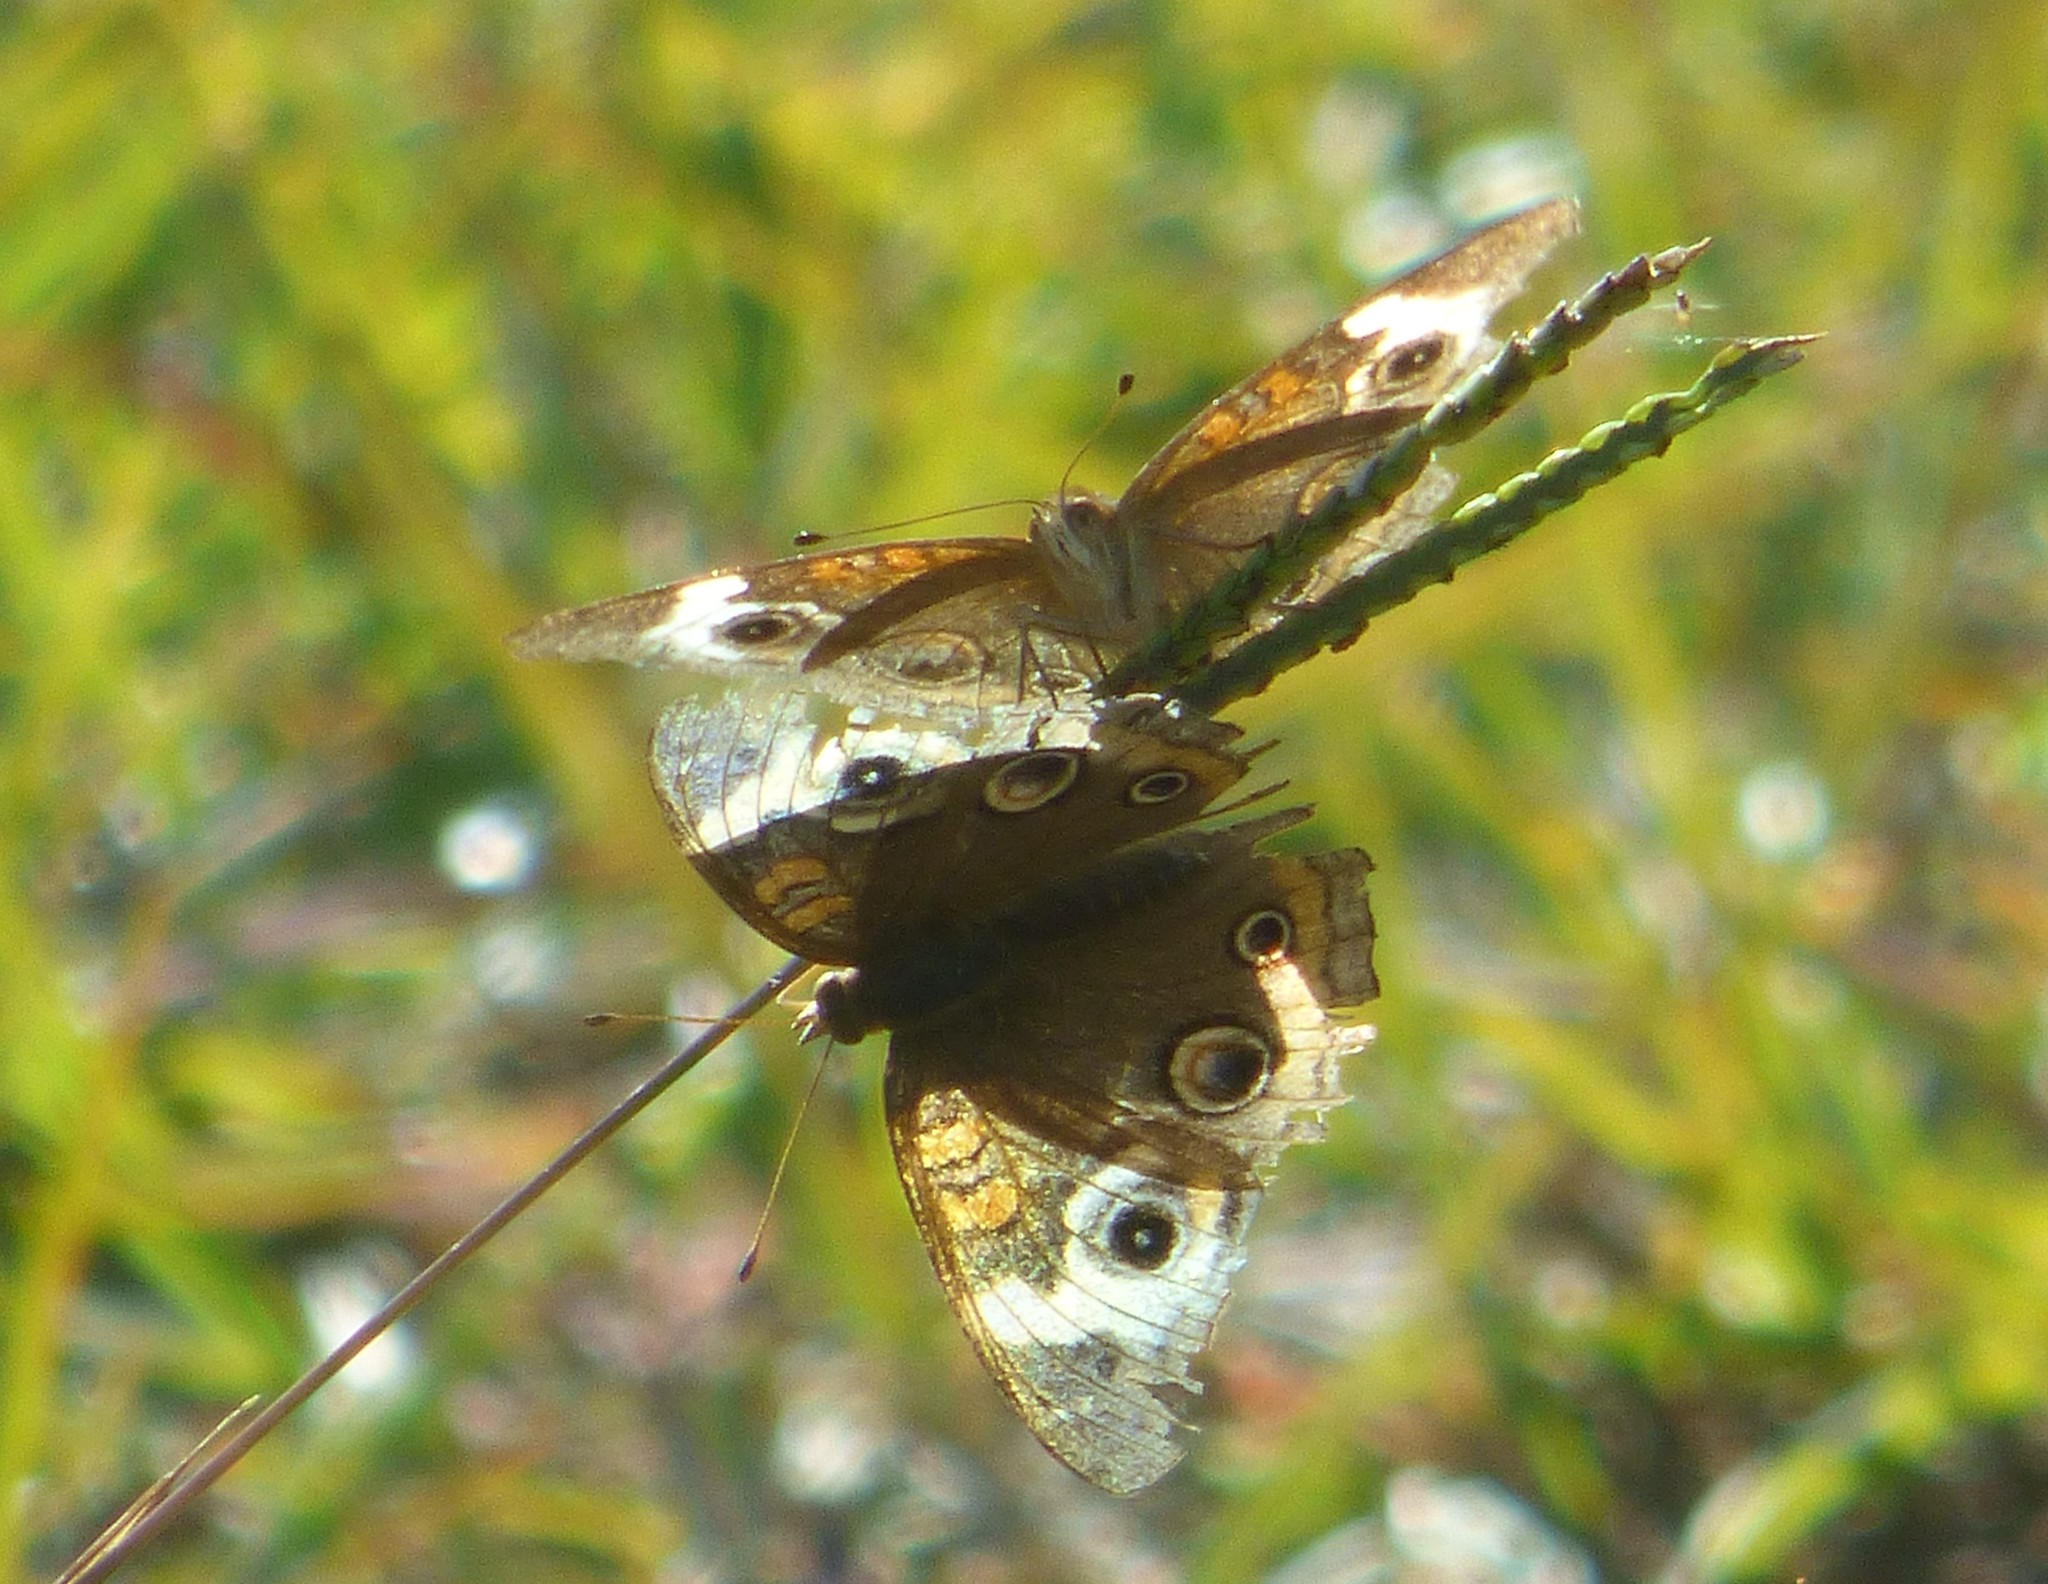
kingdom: Animalia
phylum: Arthropoda
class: Insecta
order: Lepidoptera
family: Nymphalidae
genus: Junonia
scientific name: Junonia coenia
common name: Common buckeye
